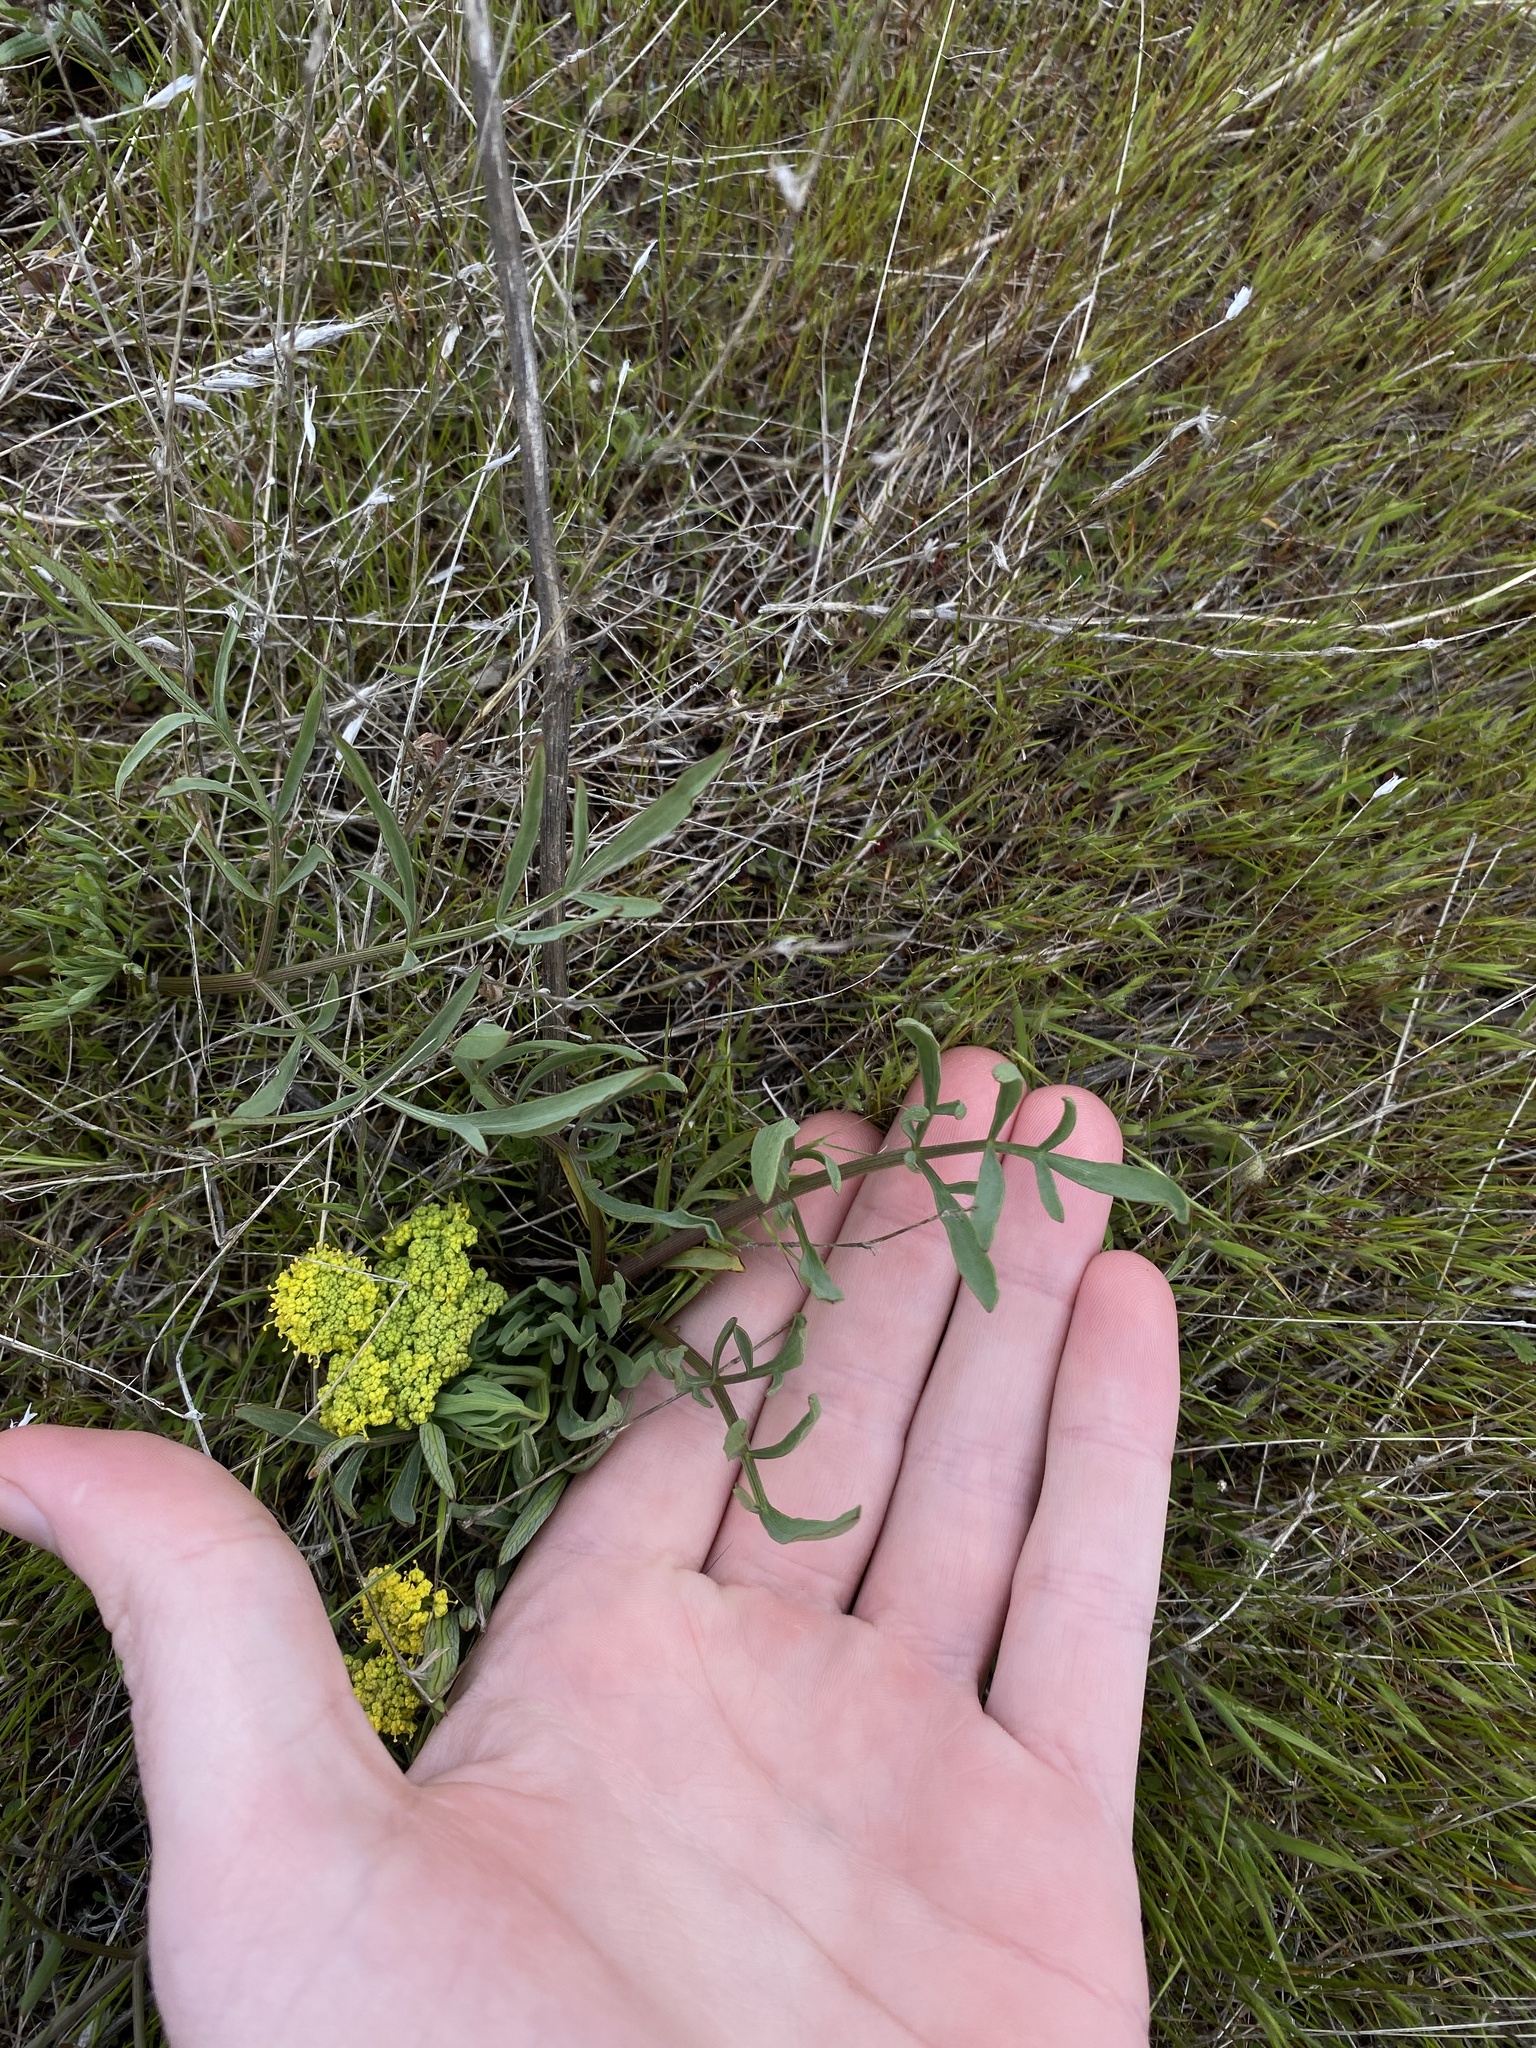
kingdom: Plantae
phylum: Tracheophyta
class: Magnoliopsida
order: Apiales
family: Apiaceae
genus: Lomatium
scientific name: Lomatium triternatum
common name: Ternate lomatium
